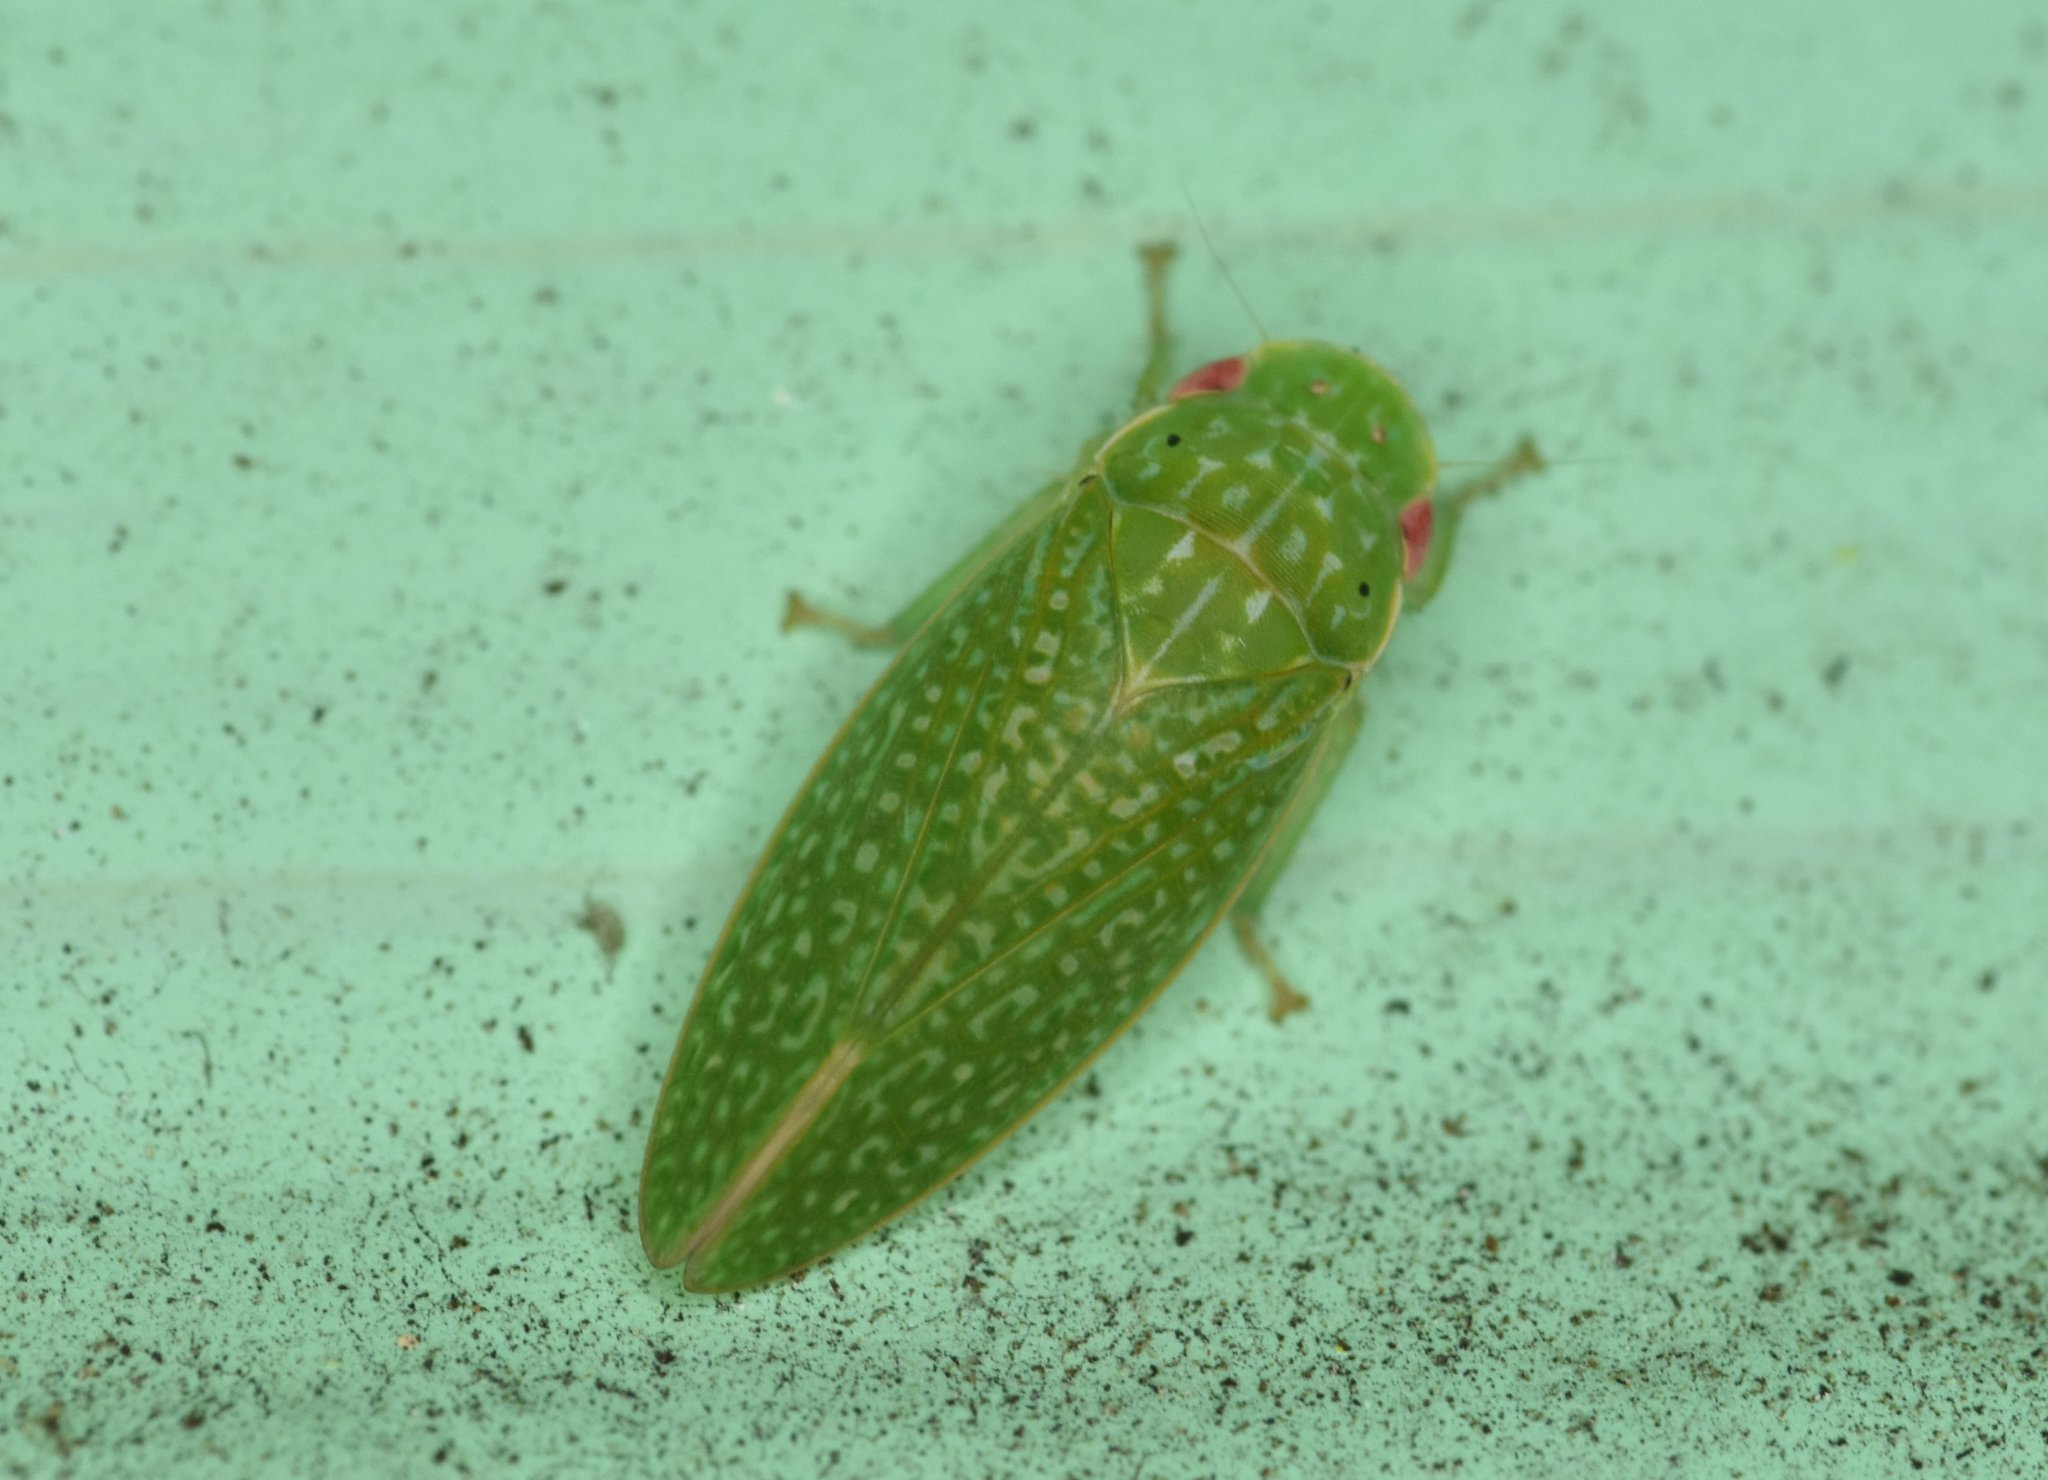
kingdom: Animalia
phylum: Arthropoda
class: Insecta
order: Hemiptera
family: Cicadellidae
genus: Rugosana
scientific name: Rugosana querci
